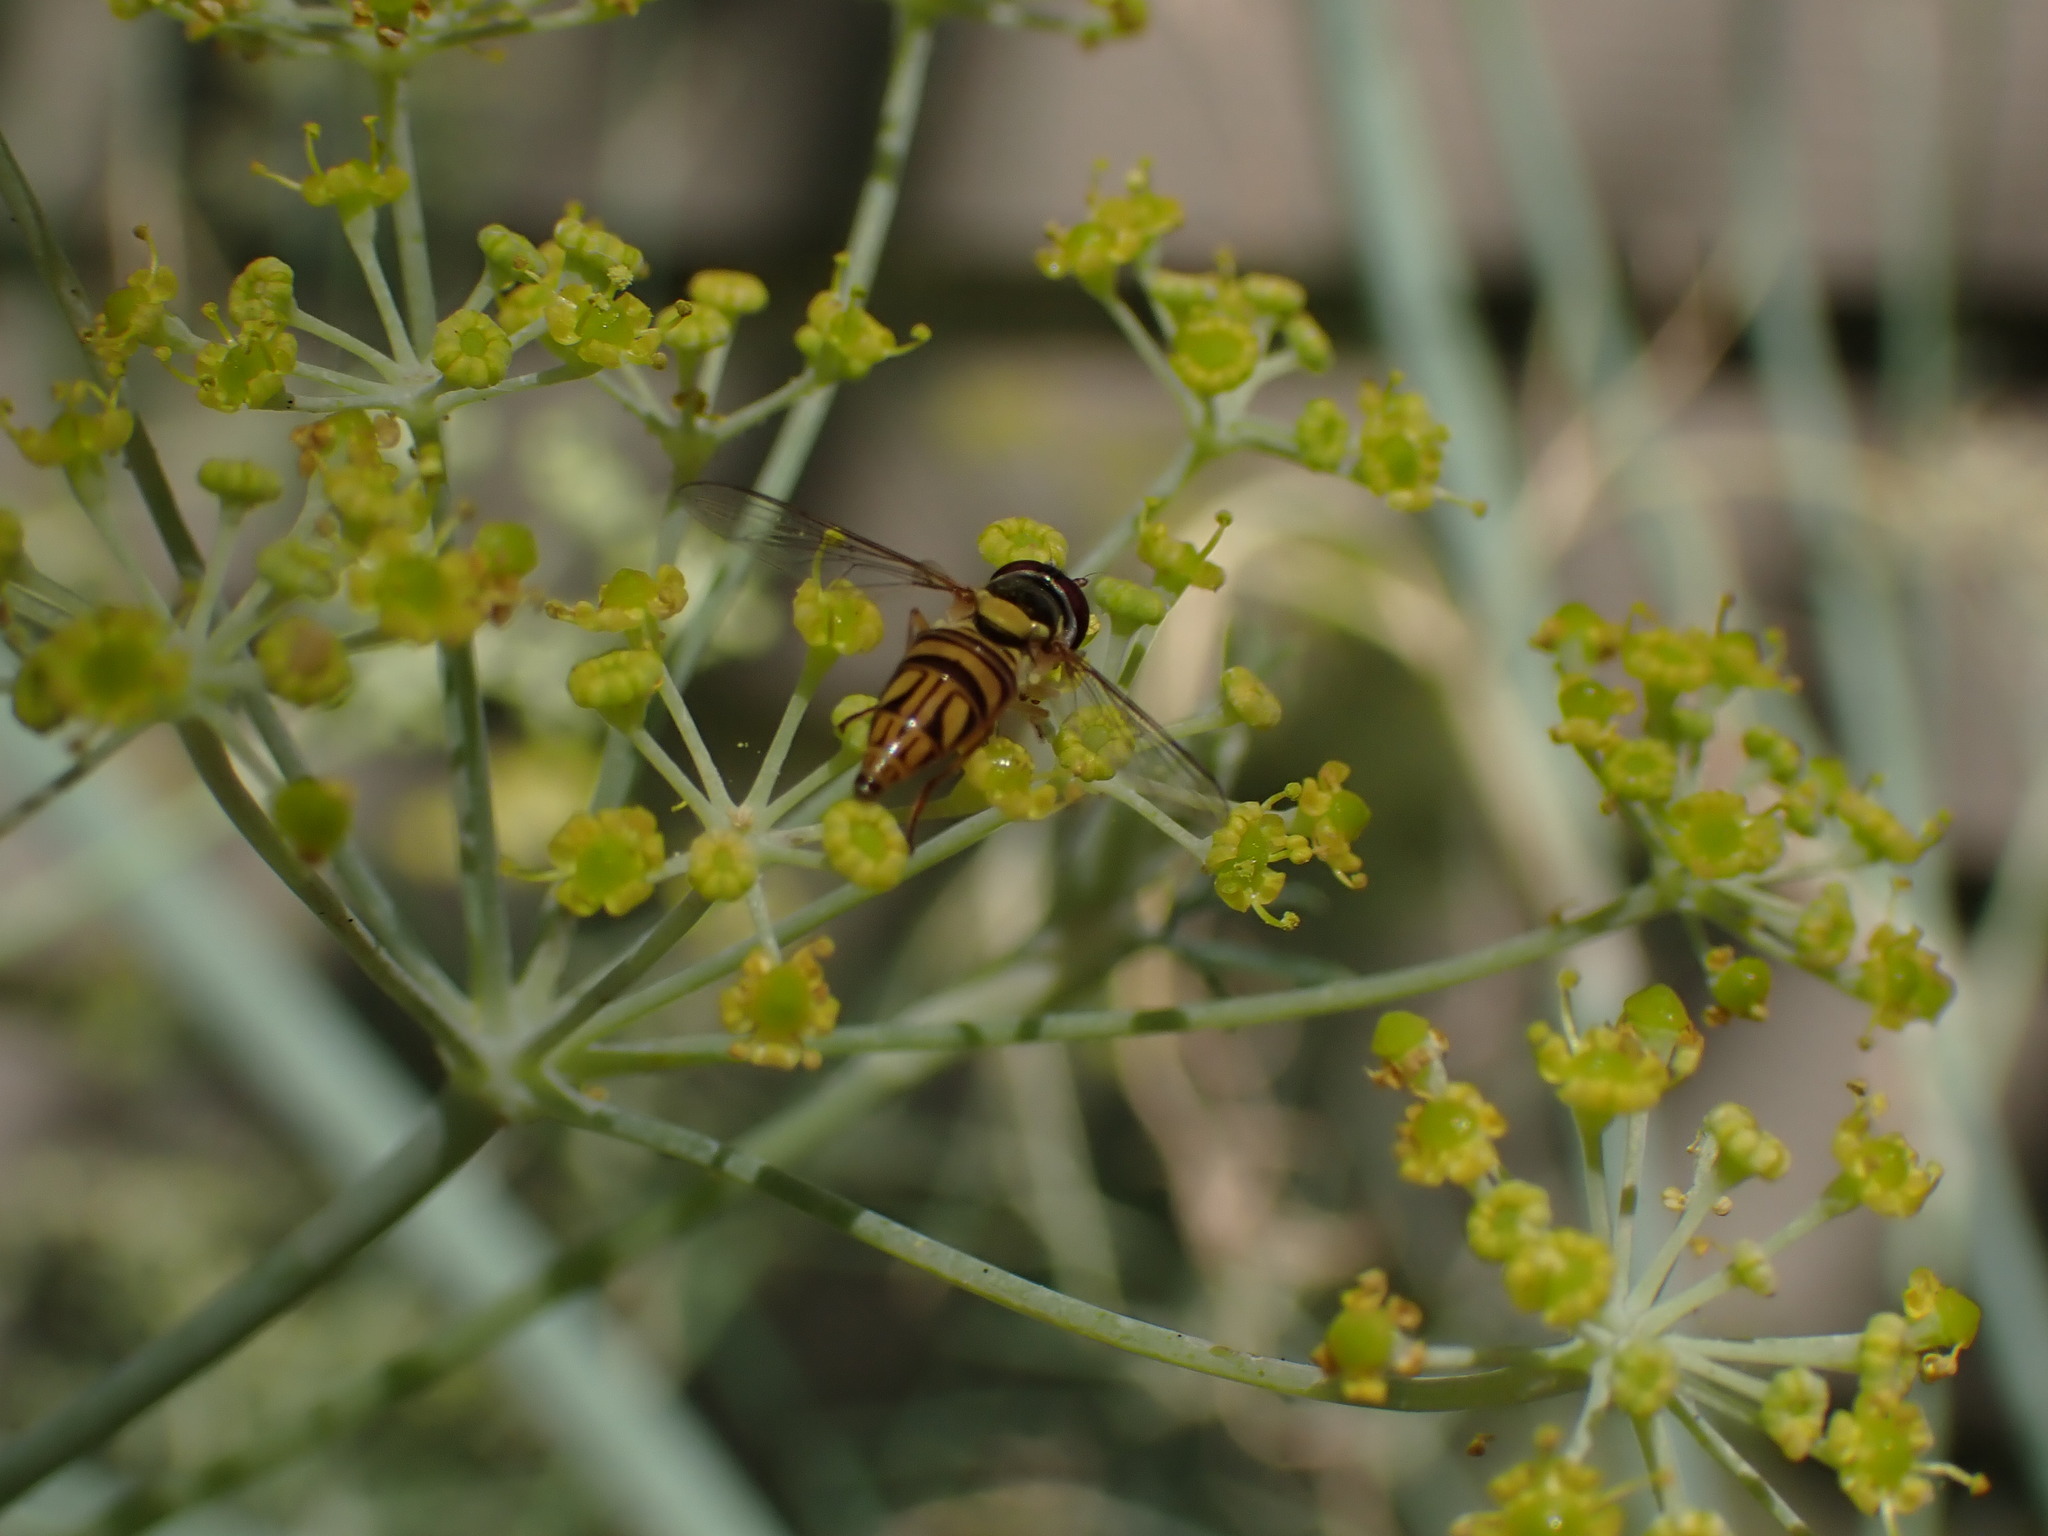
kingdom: Animalia
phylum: Arthropoda
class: Insecta
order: Diptera
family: Syrphidae
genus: Allograpta
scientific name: Allograpta obliqua
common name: Common oblique syrphid
